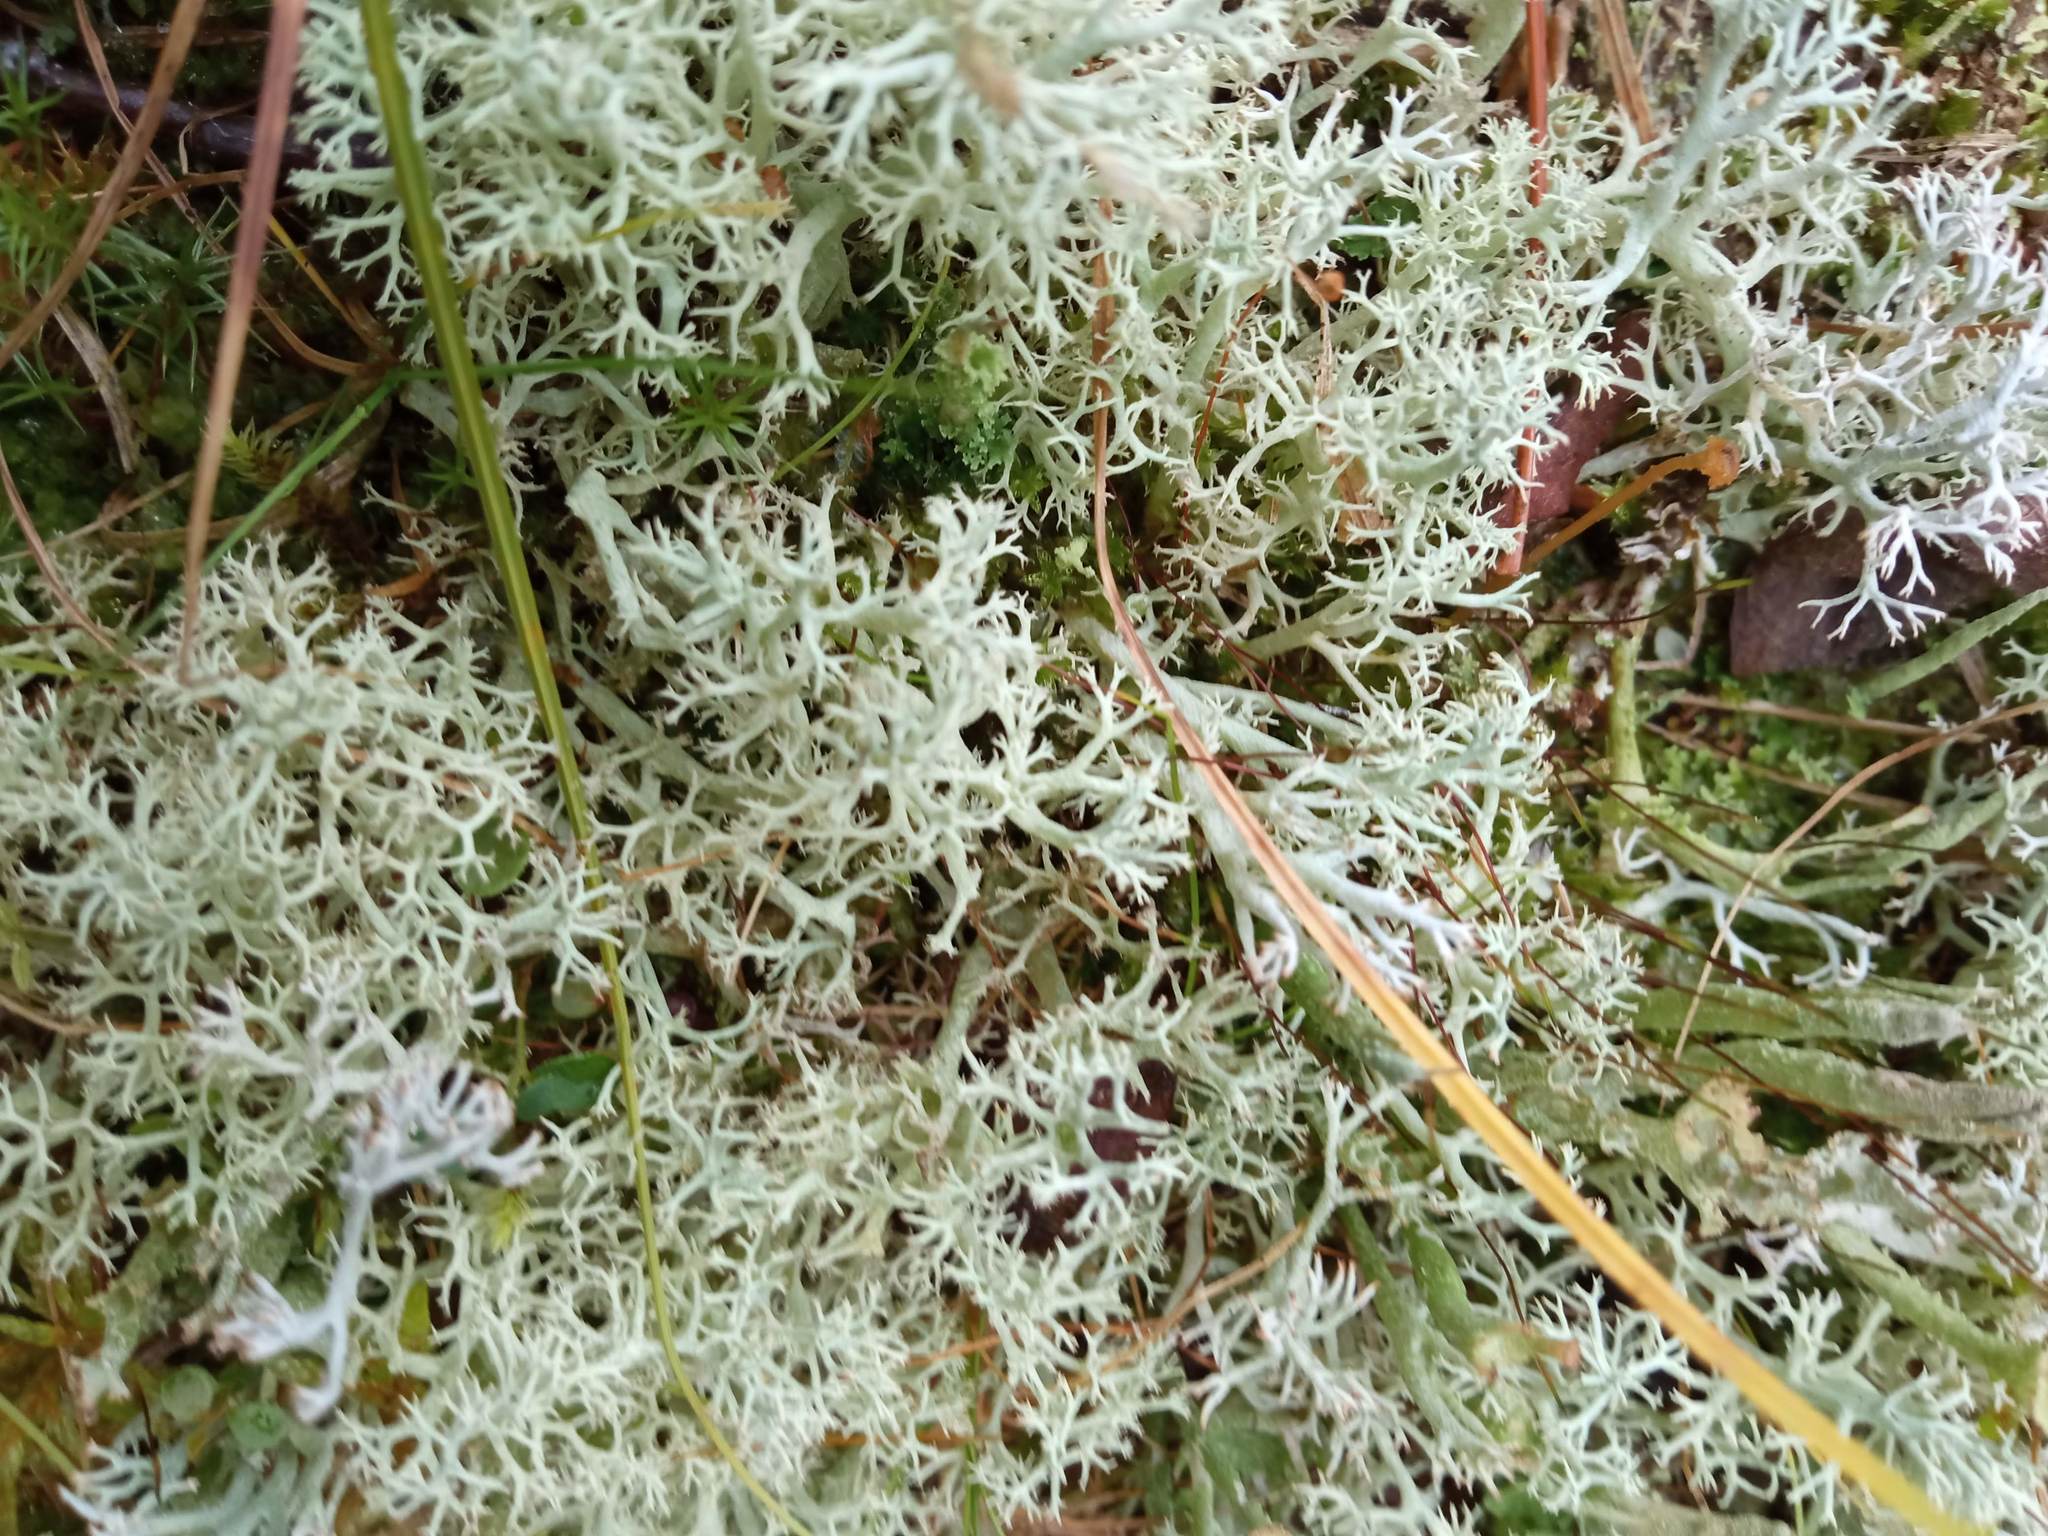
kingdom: Fungi
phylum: Ascomycota
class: Lecanoromycetes
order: Lecanorales
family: Cladoniaceae
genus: Cladonia
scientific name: Cladonia arbuscula
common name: Reindeer lichen
